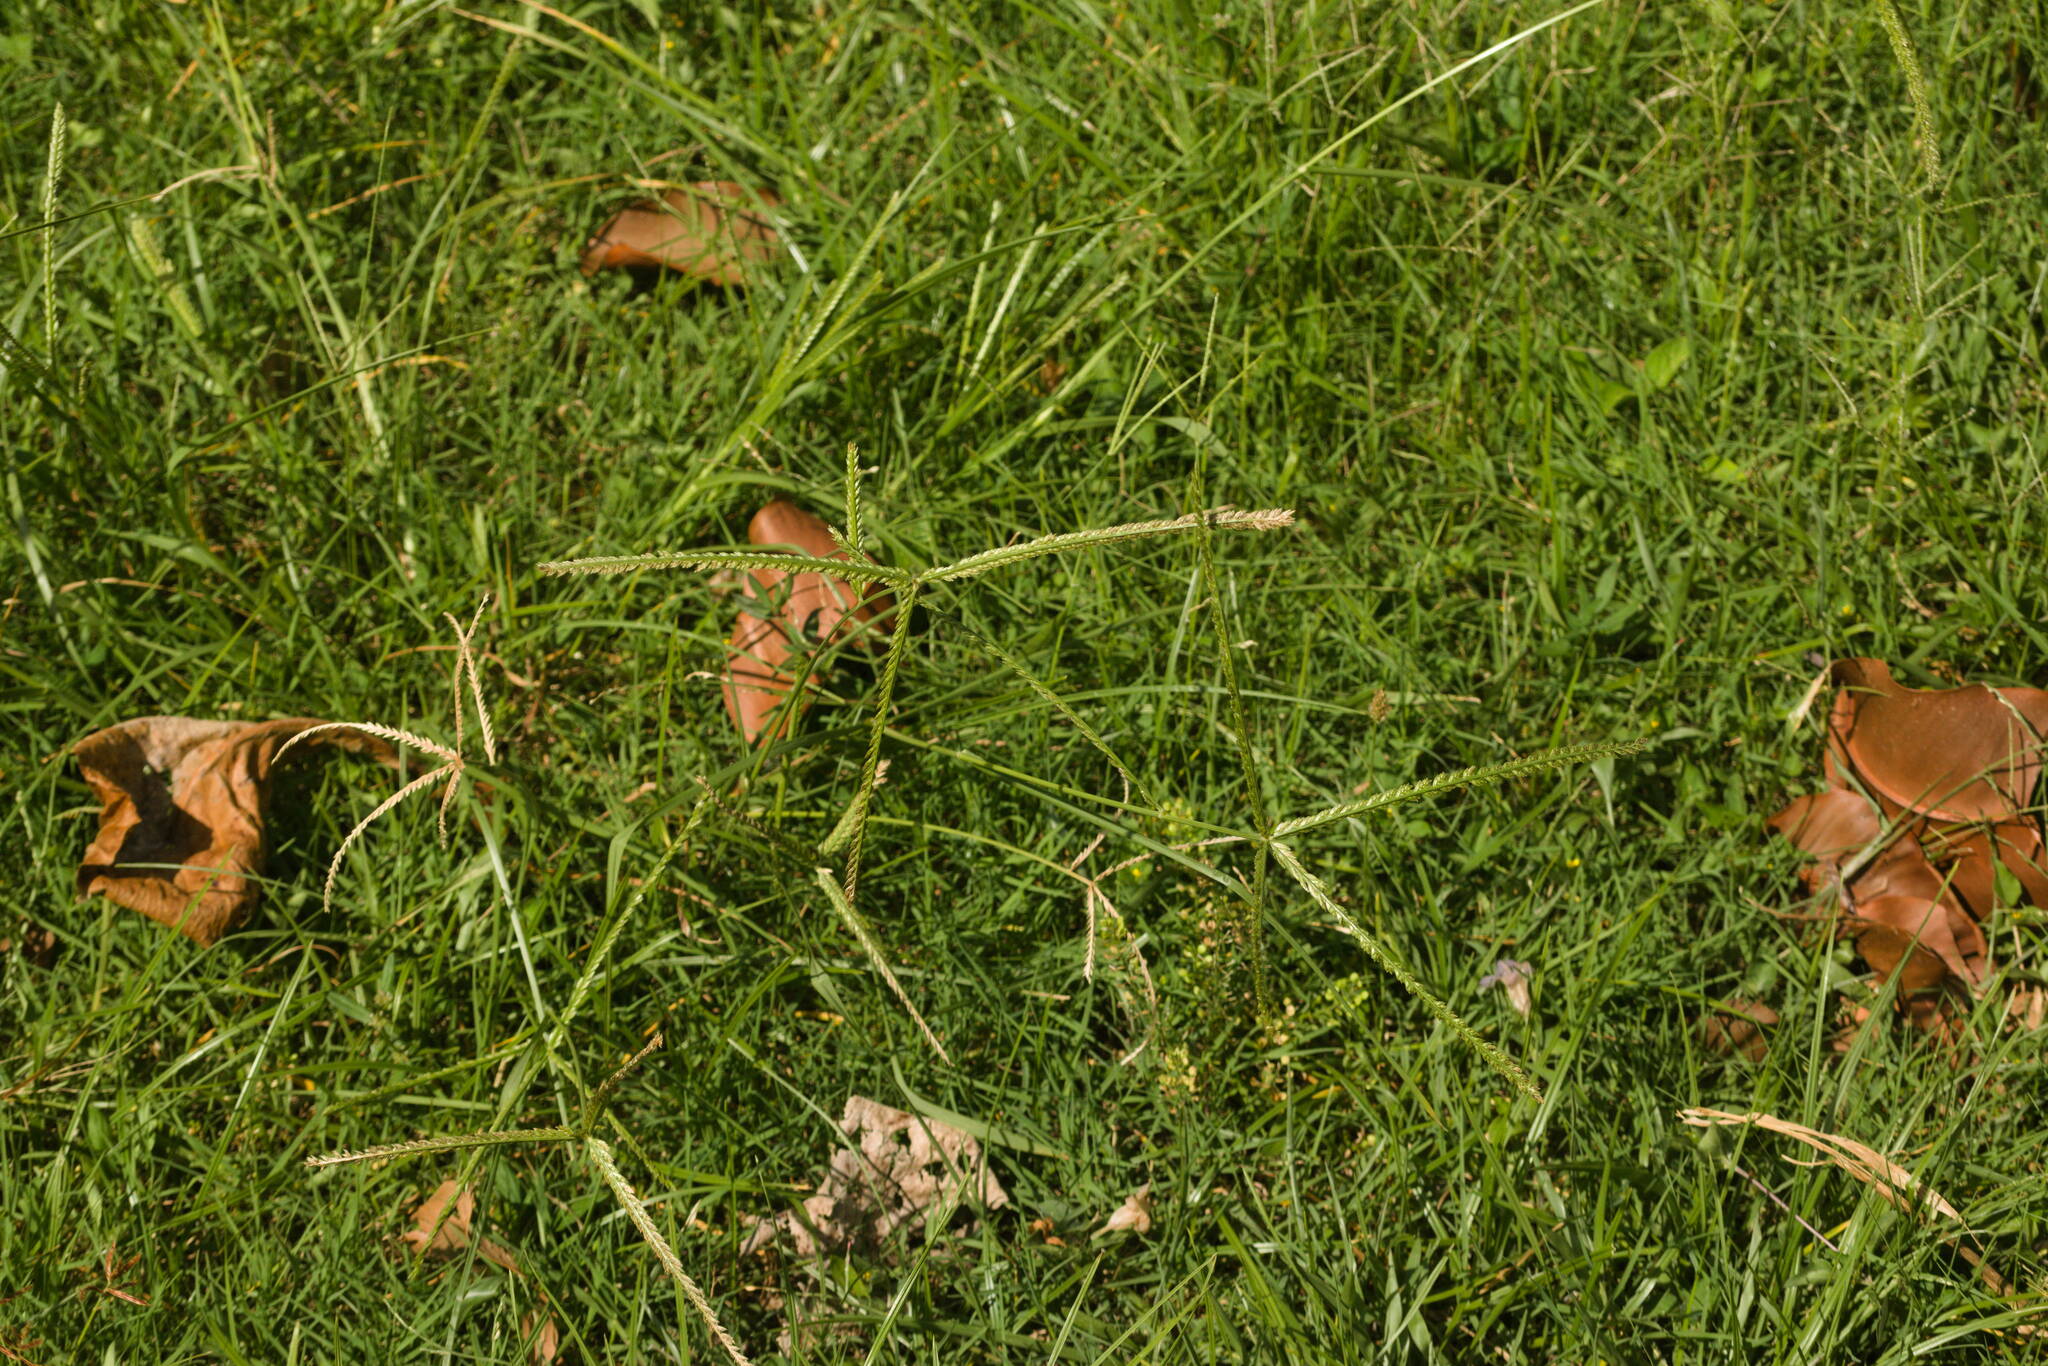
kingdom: Plantae
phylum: Tracheophyta
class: Liliopsida
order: Poales
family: Poaceae
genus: Eleusine
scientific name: Eleusine indica
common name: Yard-grass
